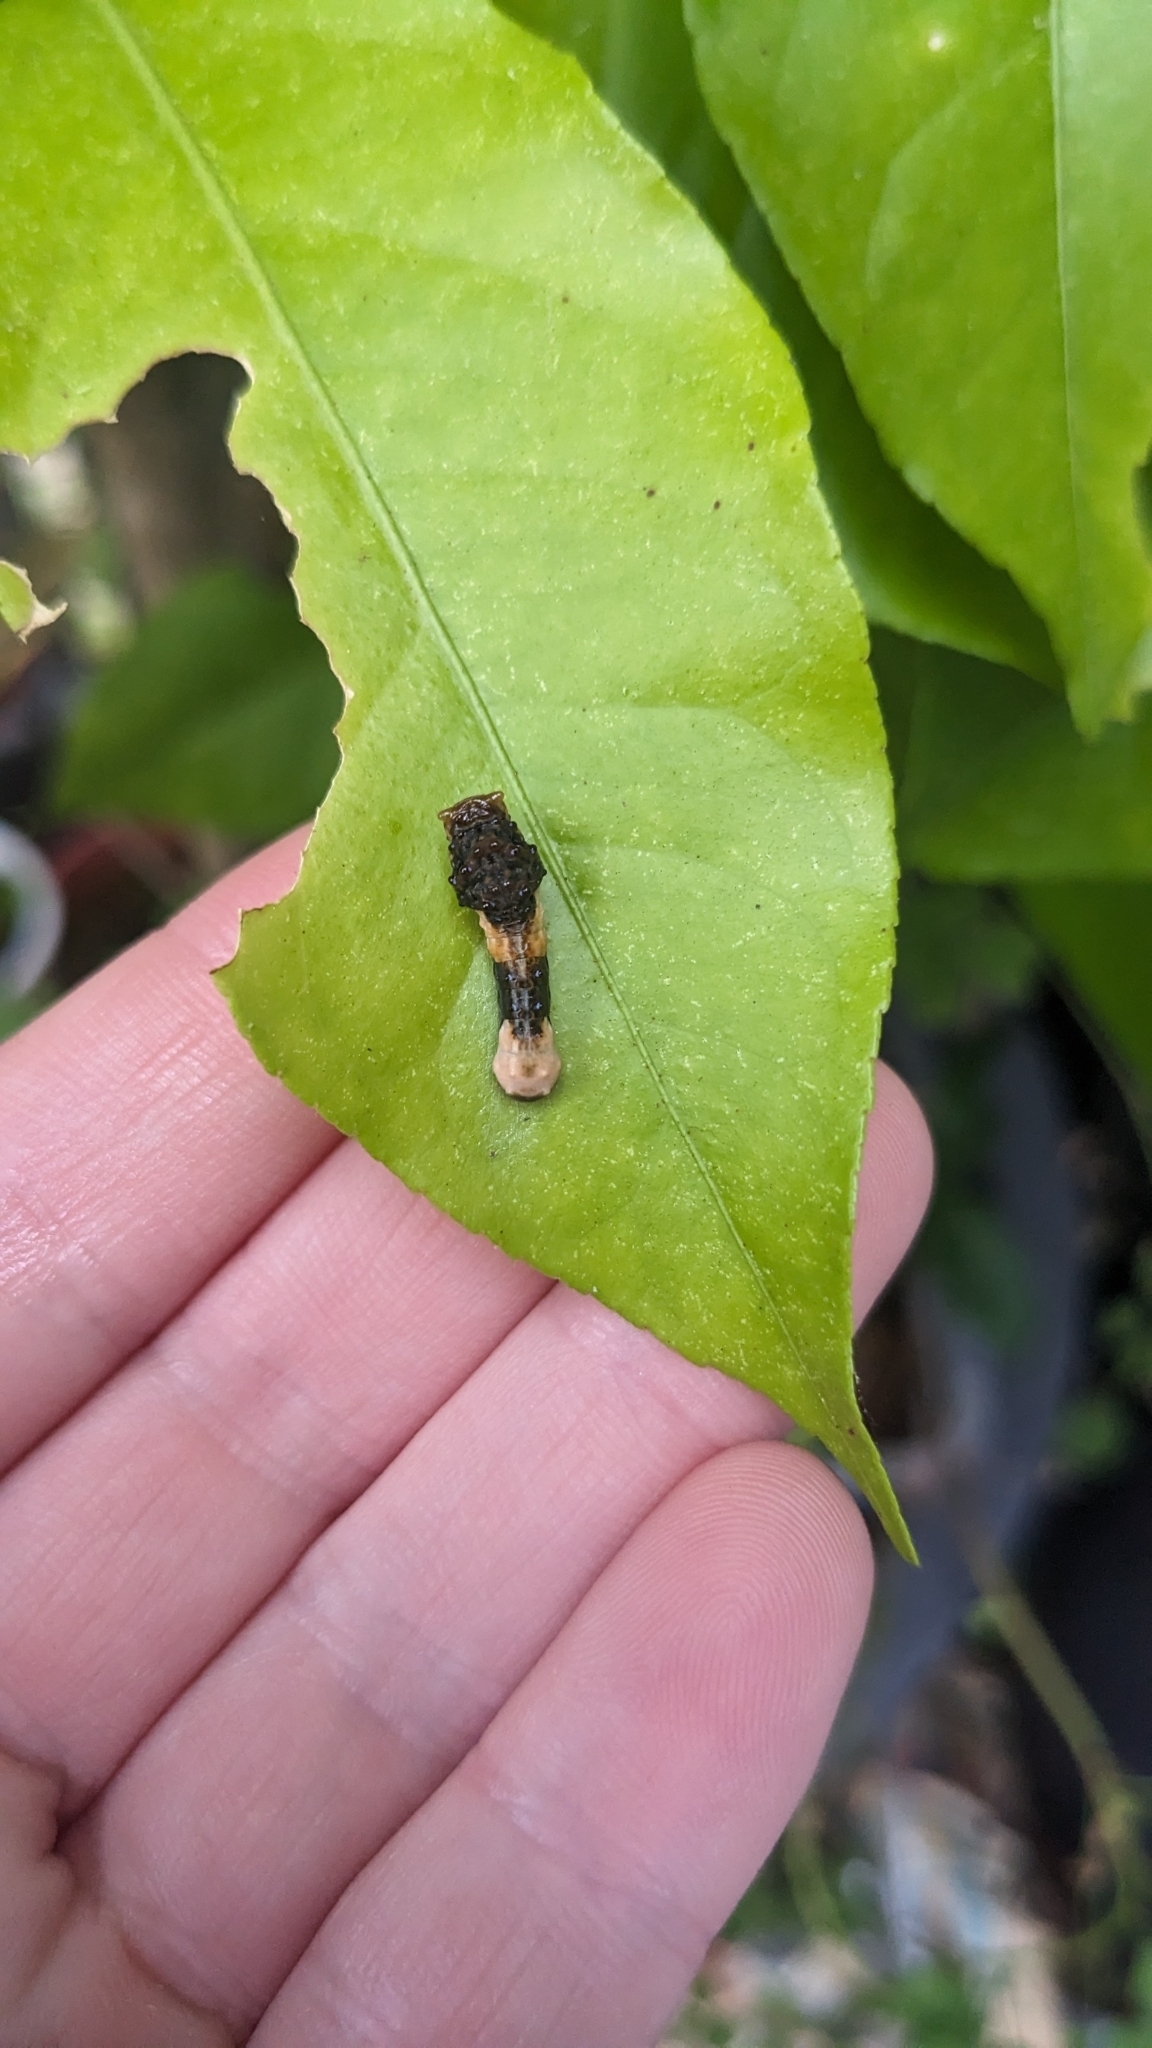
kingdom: Animalia
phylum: Arthropoda
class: Insecta
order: Lepidoptera
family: Papilionidae
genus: Papilio
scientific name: Papilio cresphontes
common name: Giant swallowtail
